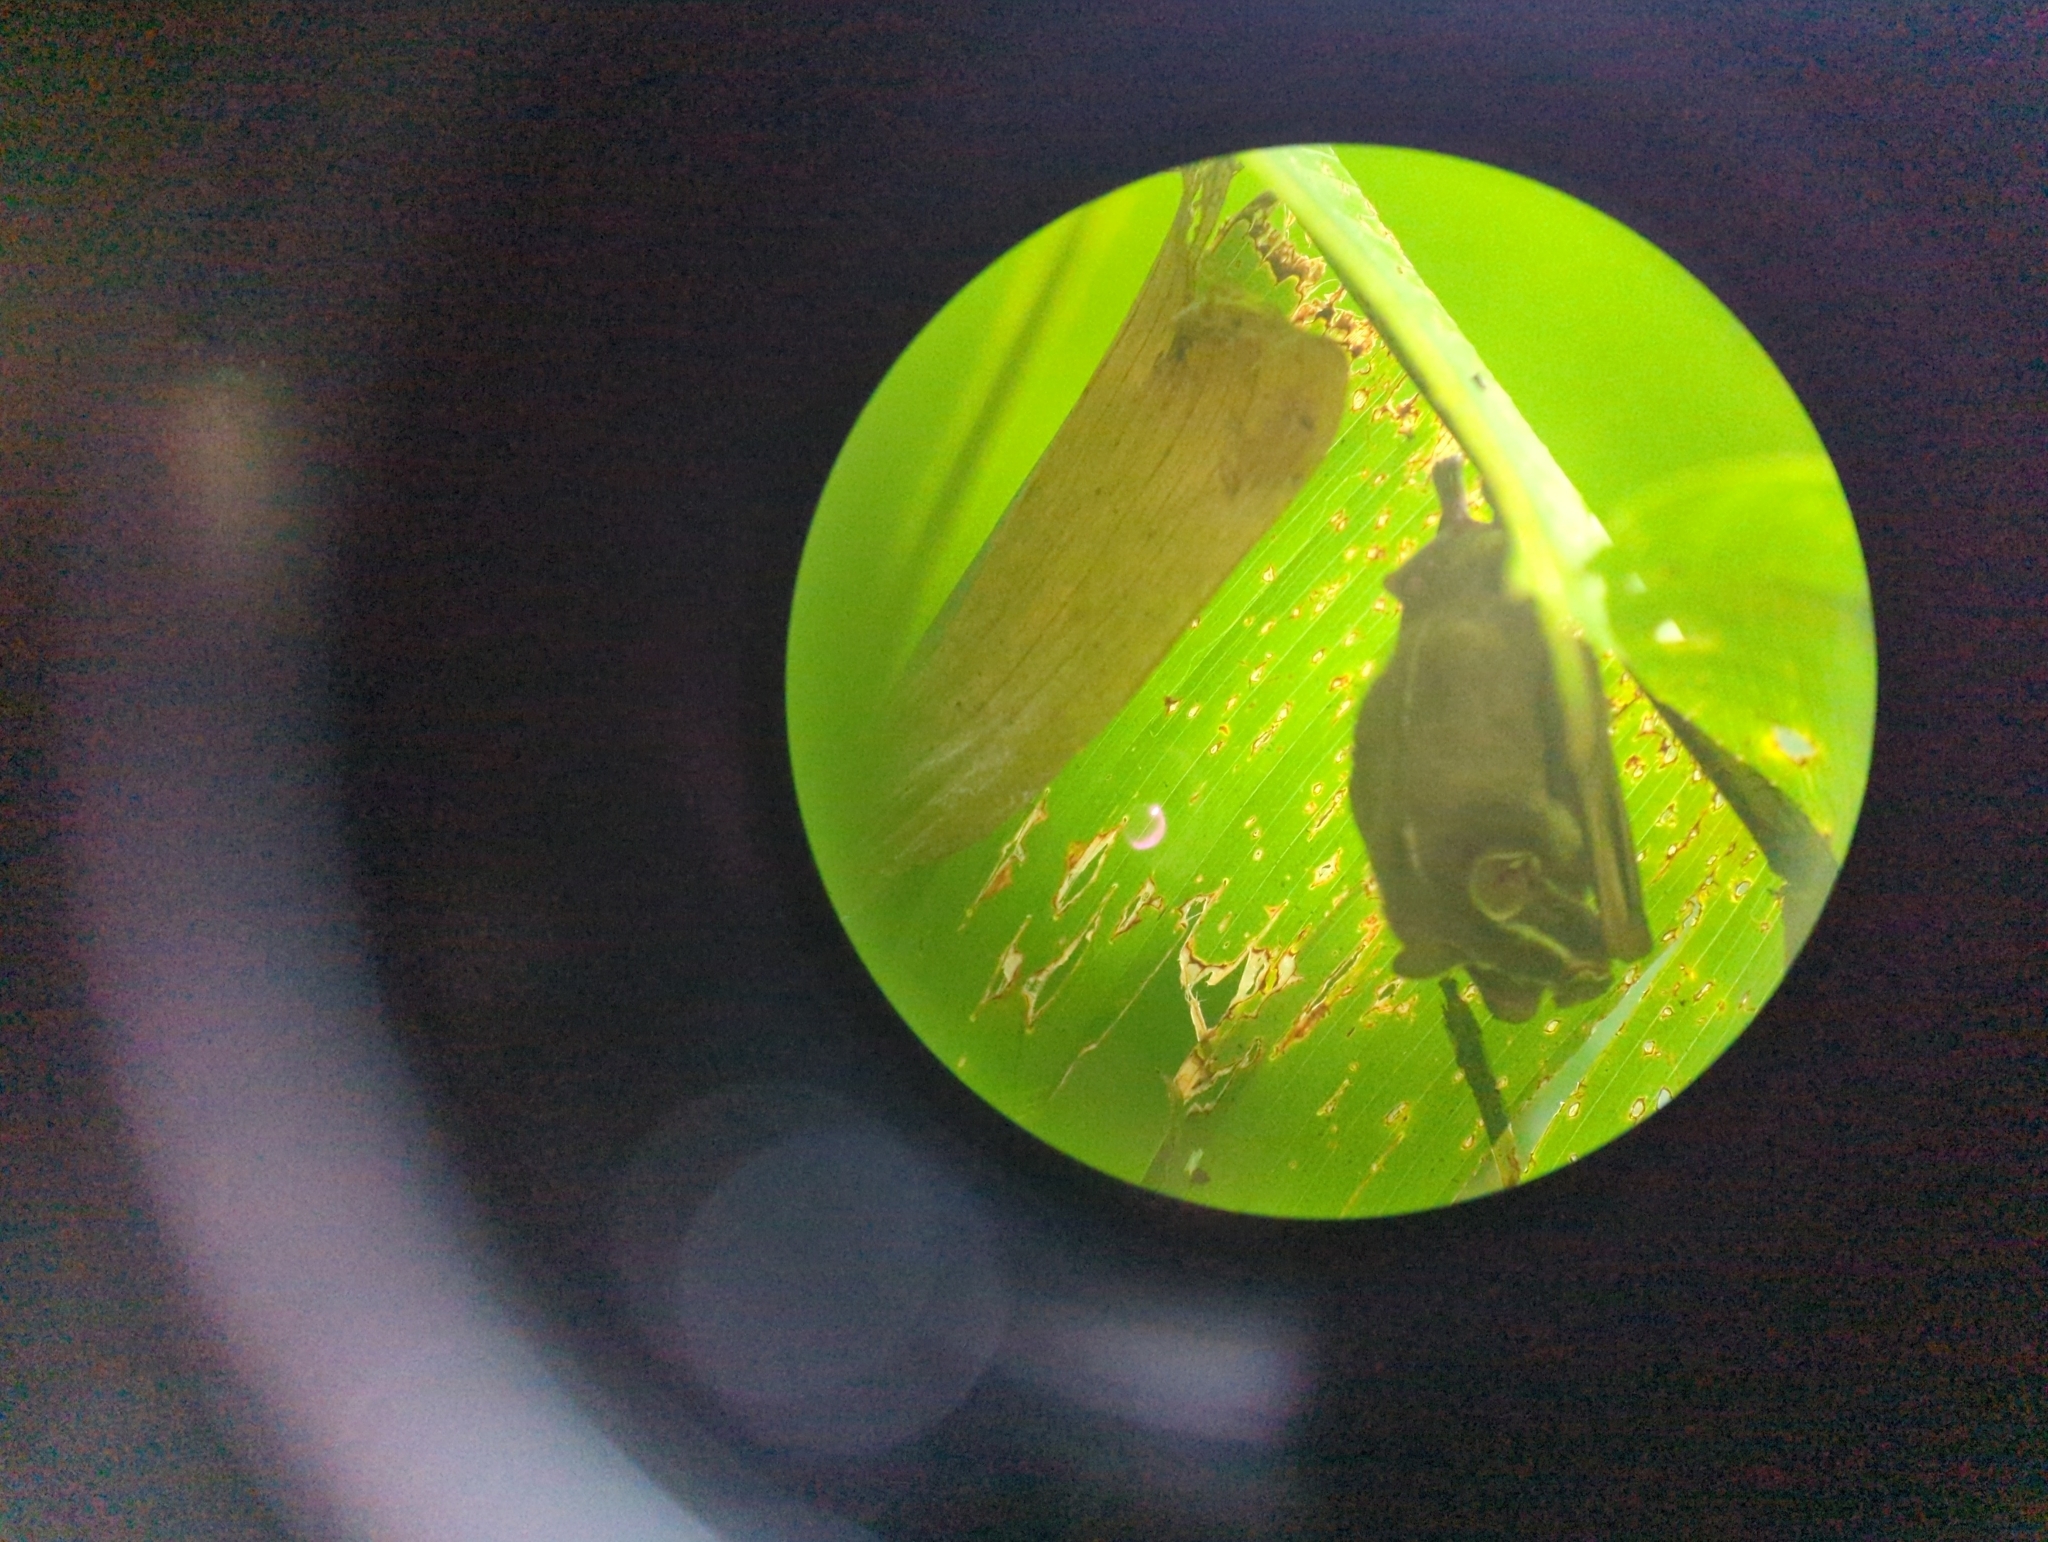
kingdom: Animalia
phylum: Chordata
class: Mammalia
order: Chiroptera
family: Phyllostomidae
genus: Uroderma
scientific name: Uroderma bilobatum
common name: Common tent-making bat
